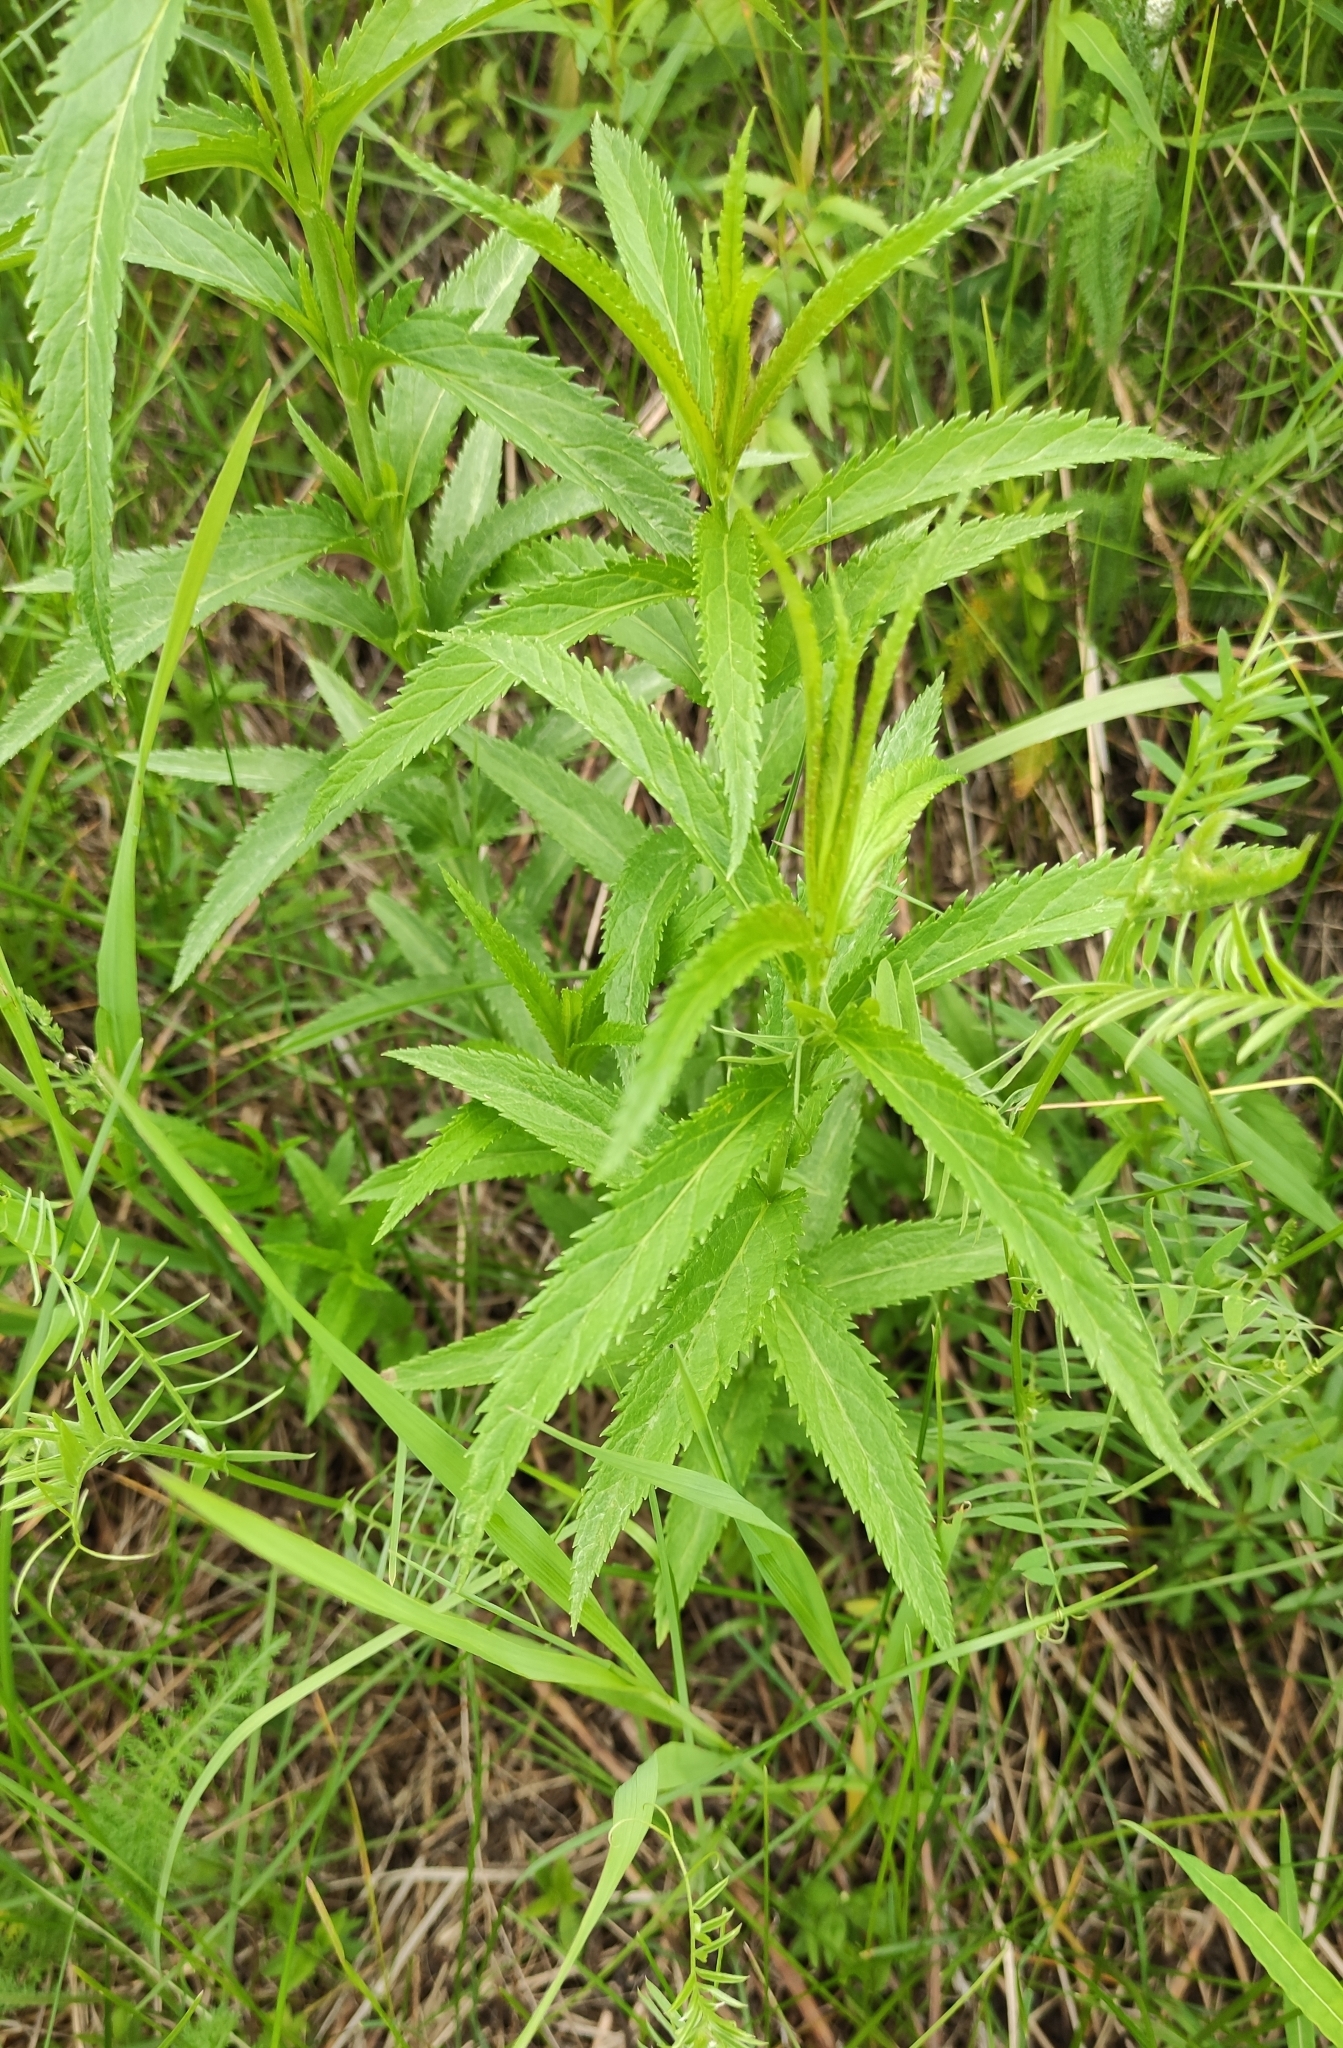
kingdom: Plantae
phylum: Tracheophyta
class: Magnoliopsida
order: Lamiales
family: Plantaginaceae
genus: Veronica
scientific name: Veronica longifolia
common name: Garden speedwell
